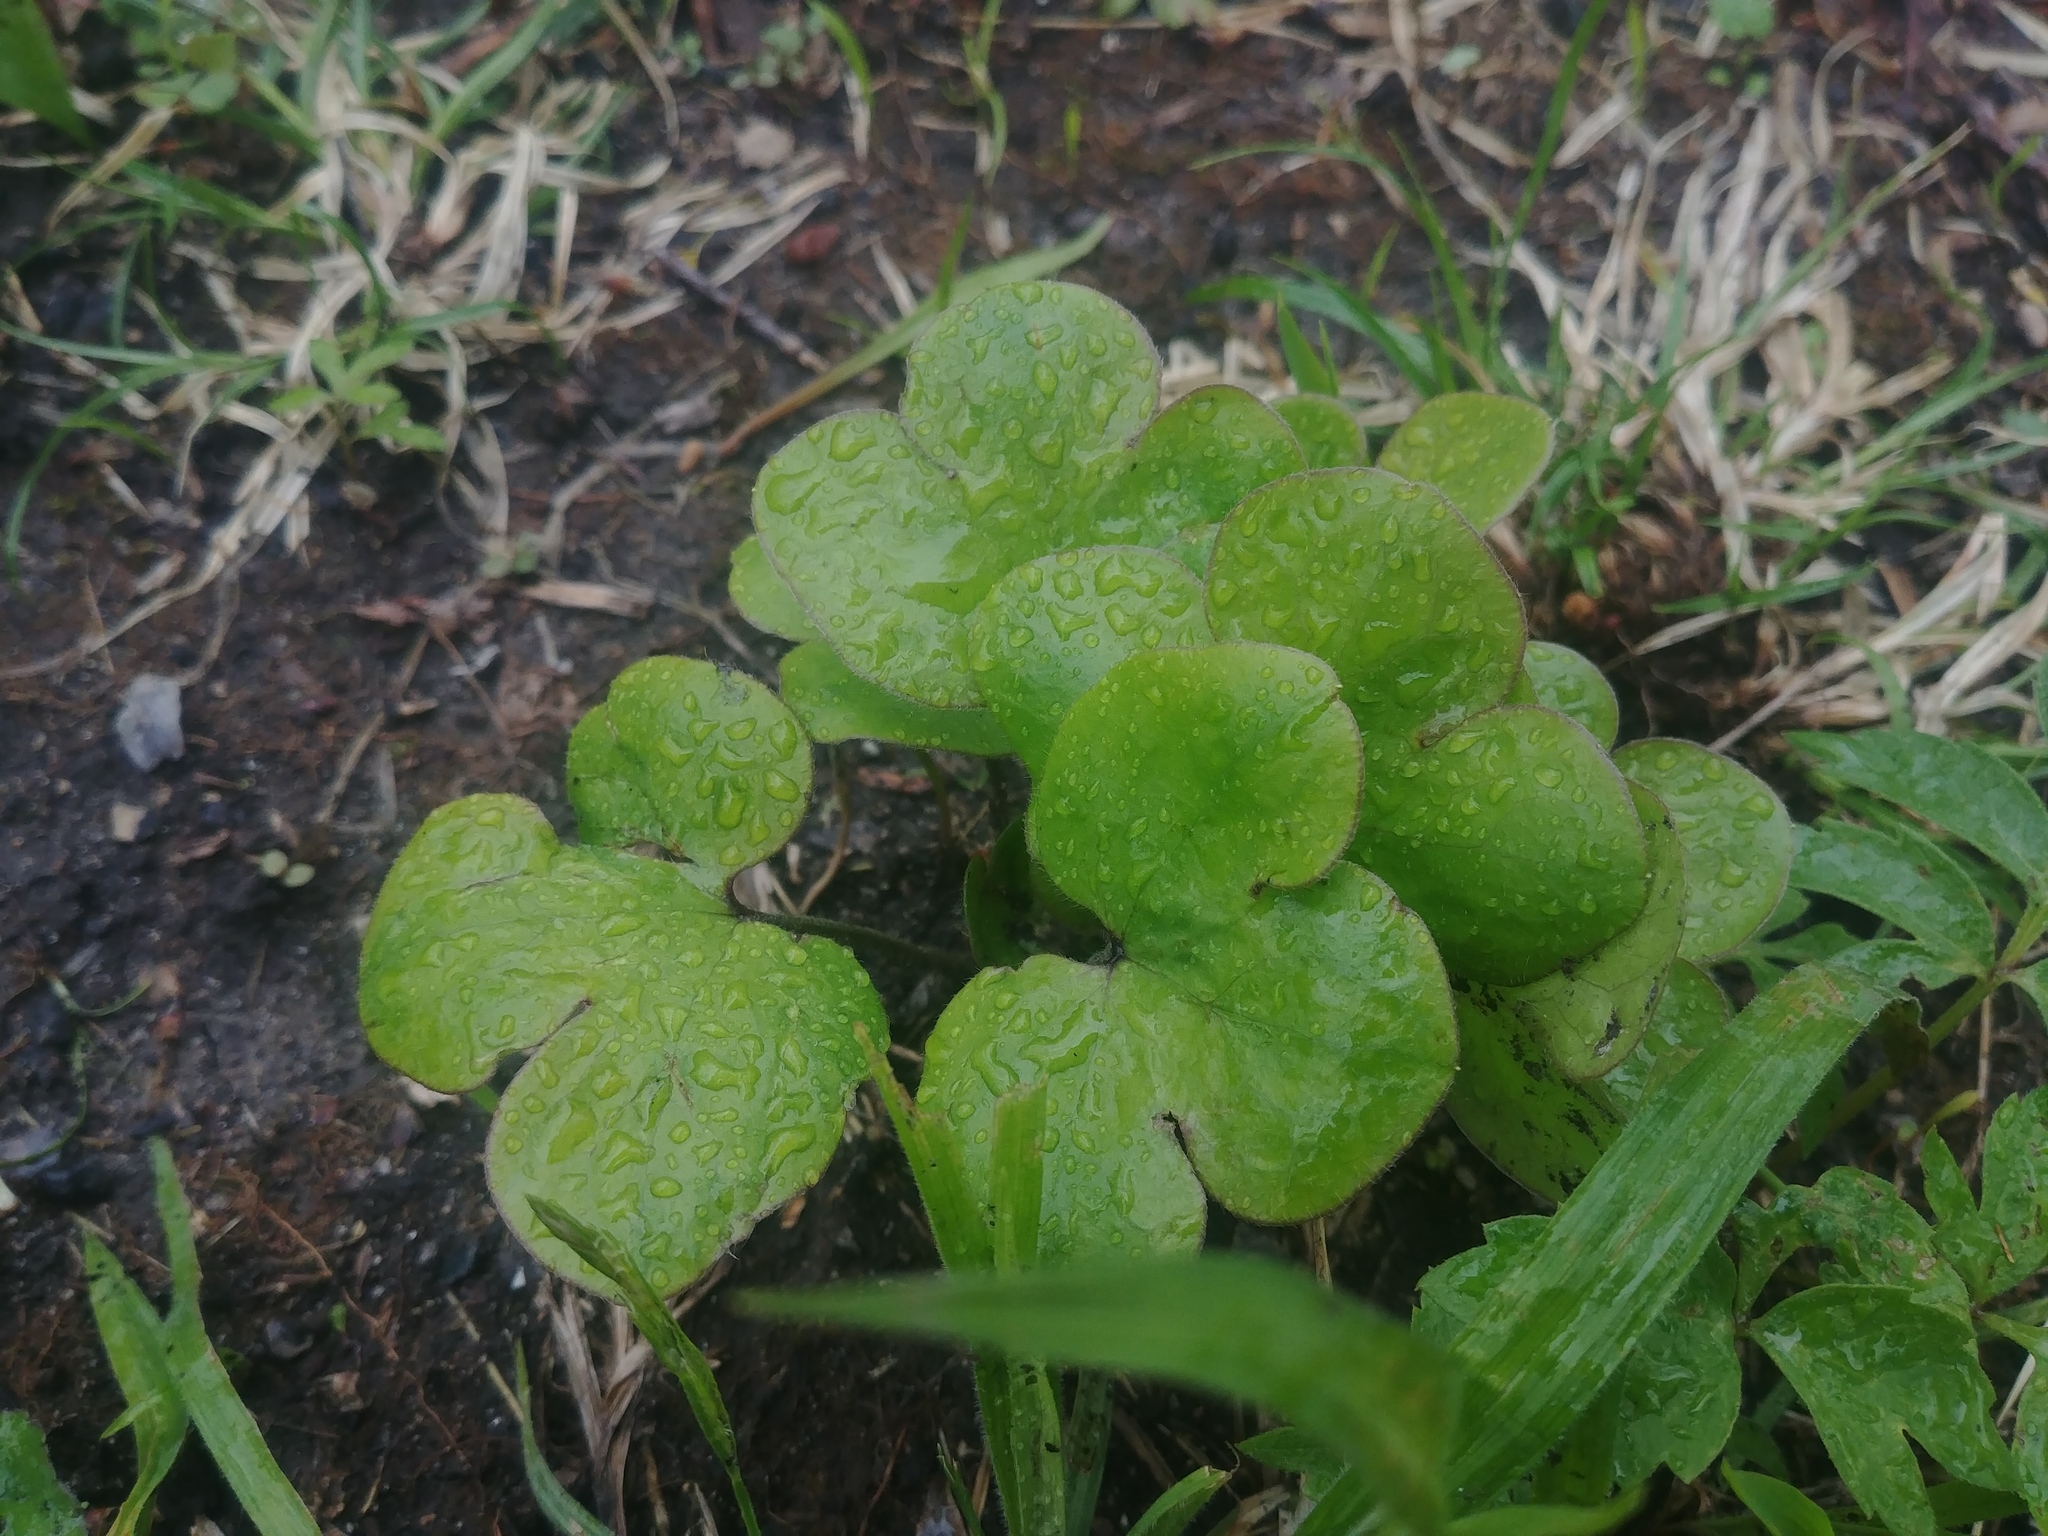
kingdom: Plantae
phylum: Tracheophyta
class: Magnoliopsida
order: Ranunculales
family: Ranunculaceae
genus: Hepatica
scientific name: Hepatica americana
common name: American hepatica
